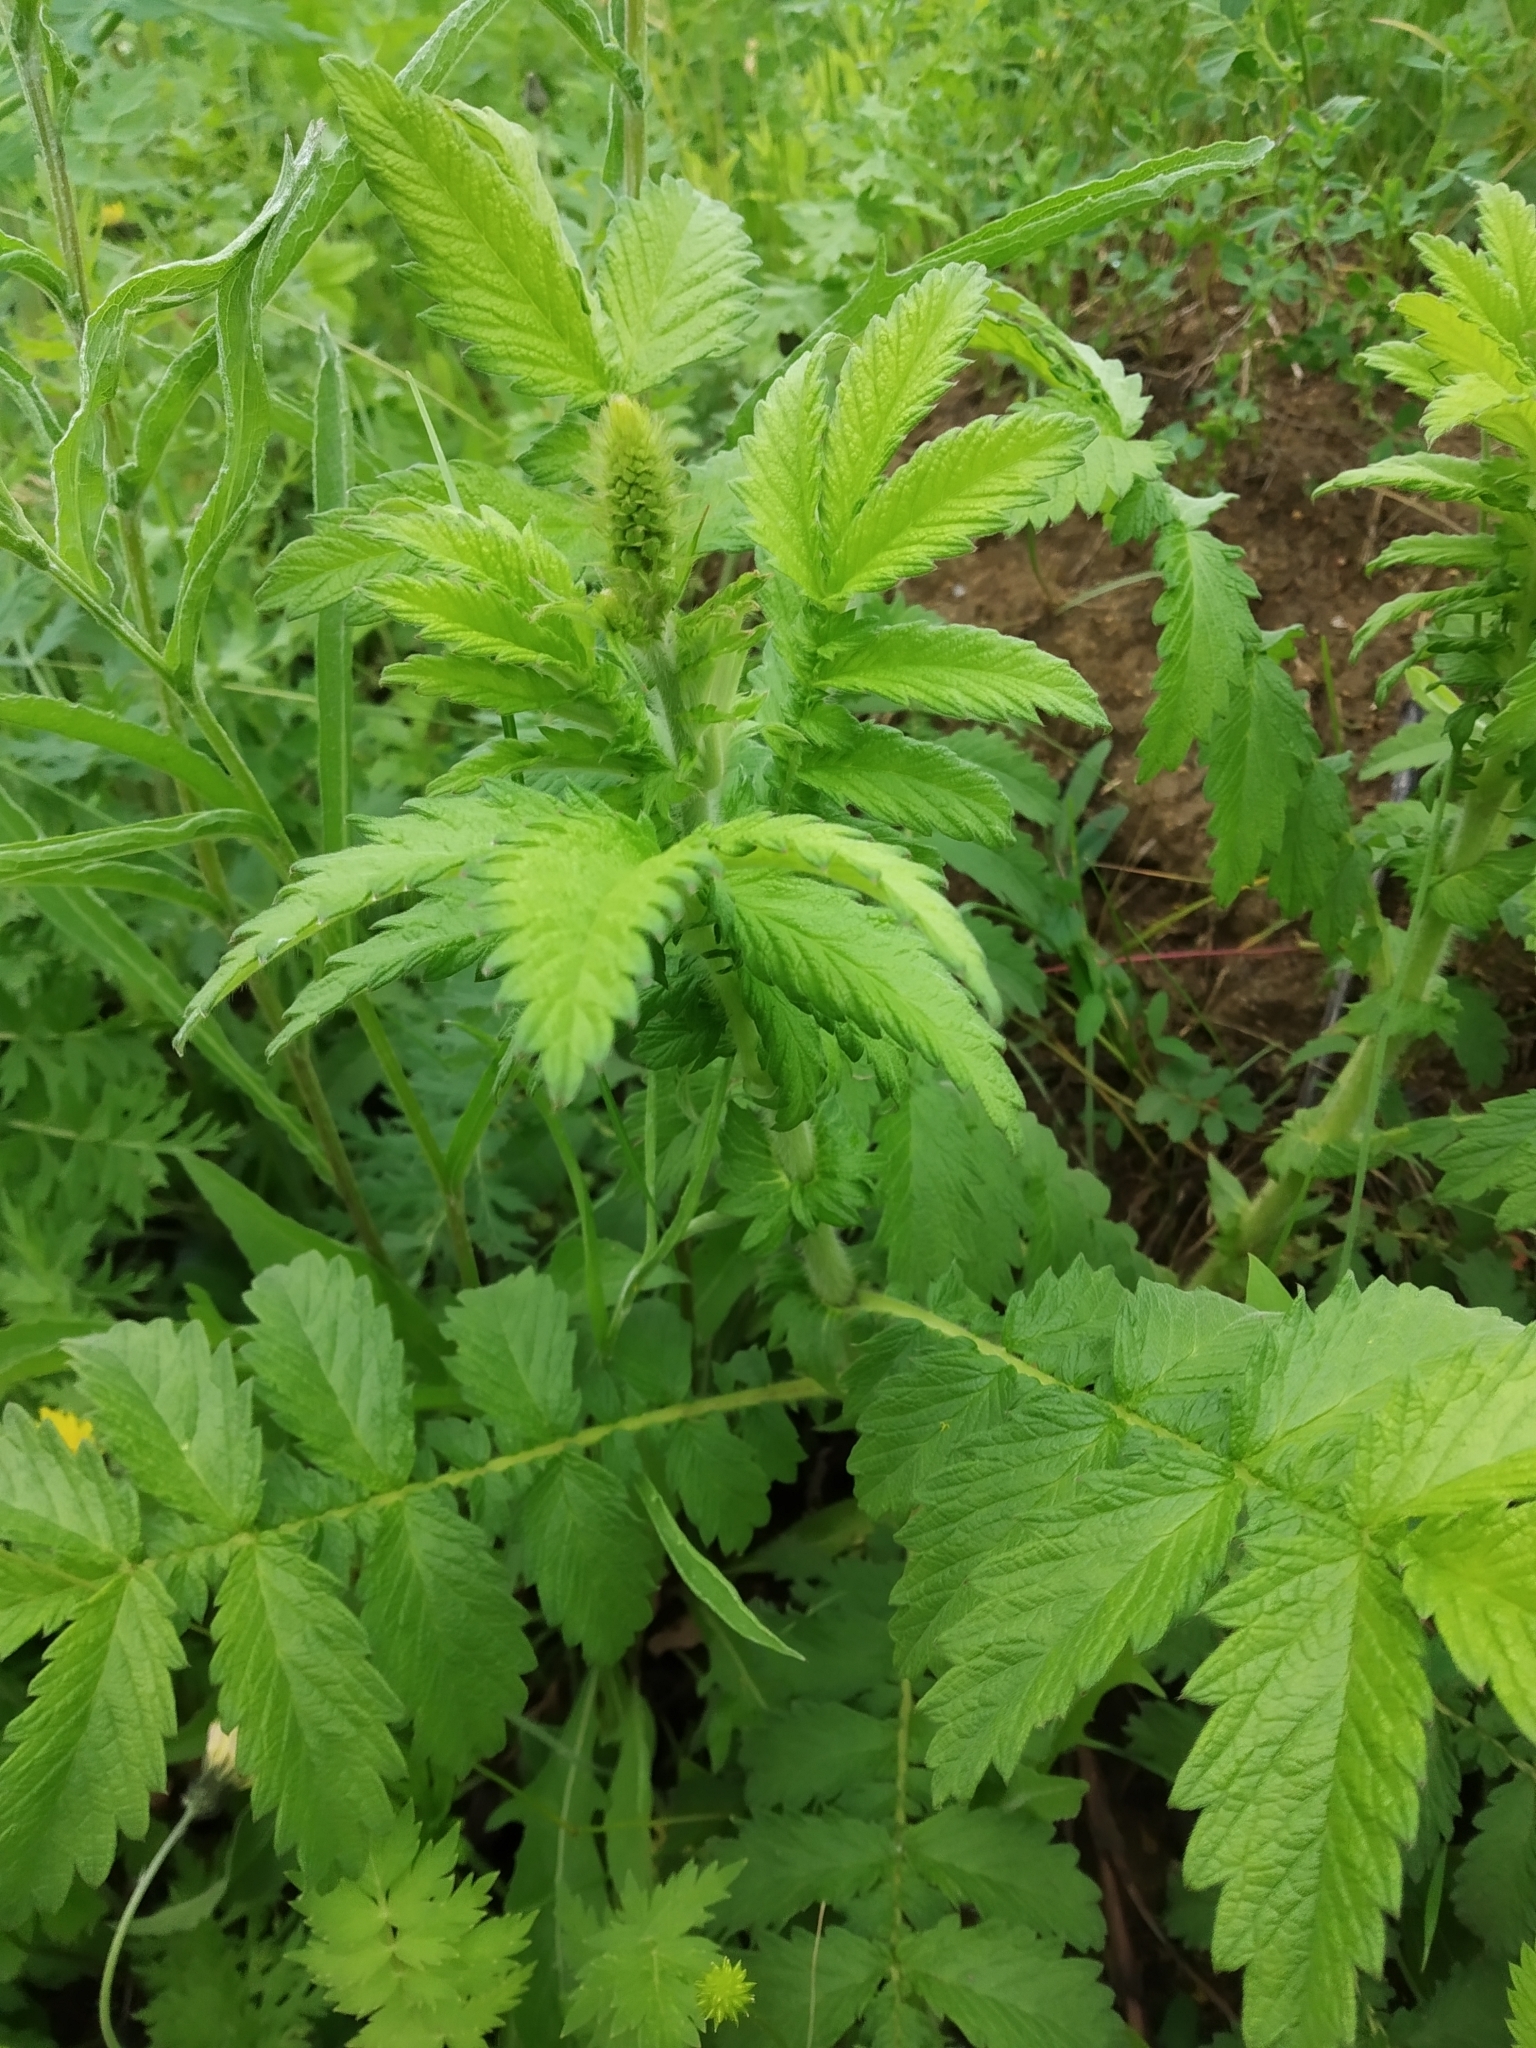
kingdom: Plantae
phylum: Tracheophyta
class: Magnoliopsida
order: Rosales
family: Rosaceae
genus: Agrimonia
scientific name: Agrimonia eupatoria
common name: Agrimony
